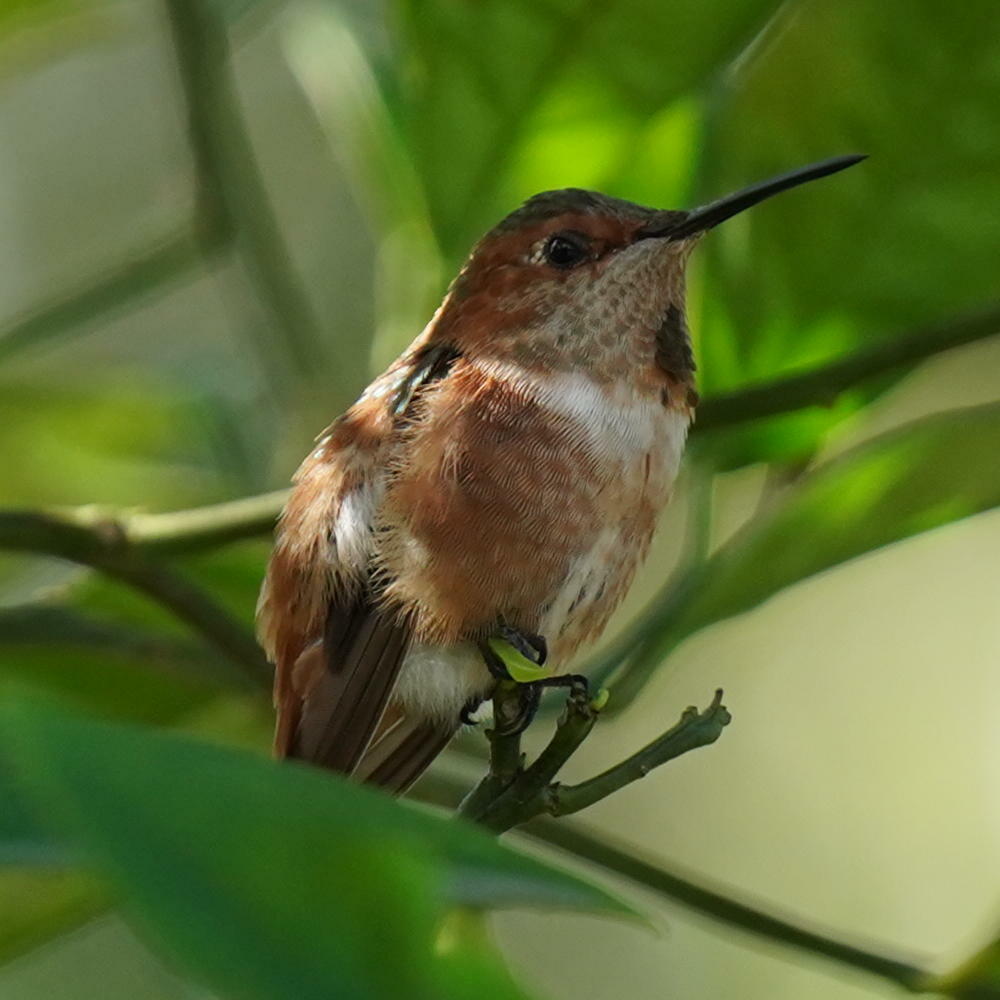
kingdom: Animalia
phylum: Chordata
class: Aves
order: Apodiformes
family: Trochilidae
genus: Selasphorus
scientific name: Selasphorus sasin
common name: Allen's hummingbird
